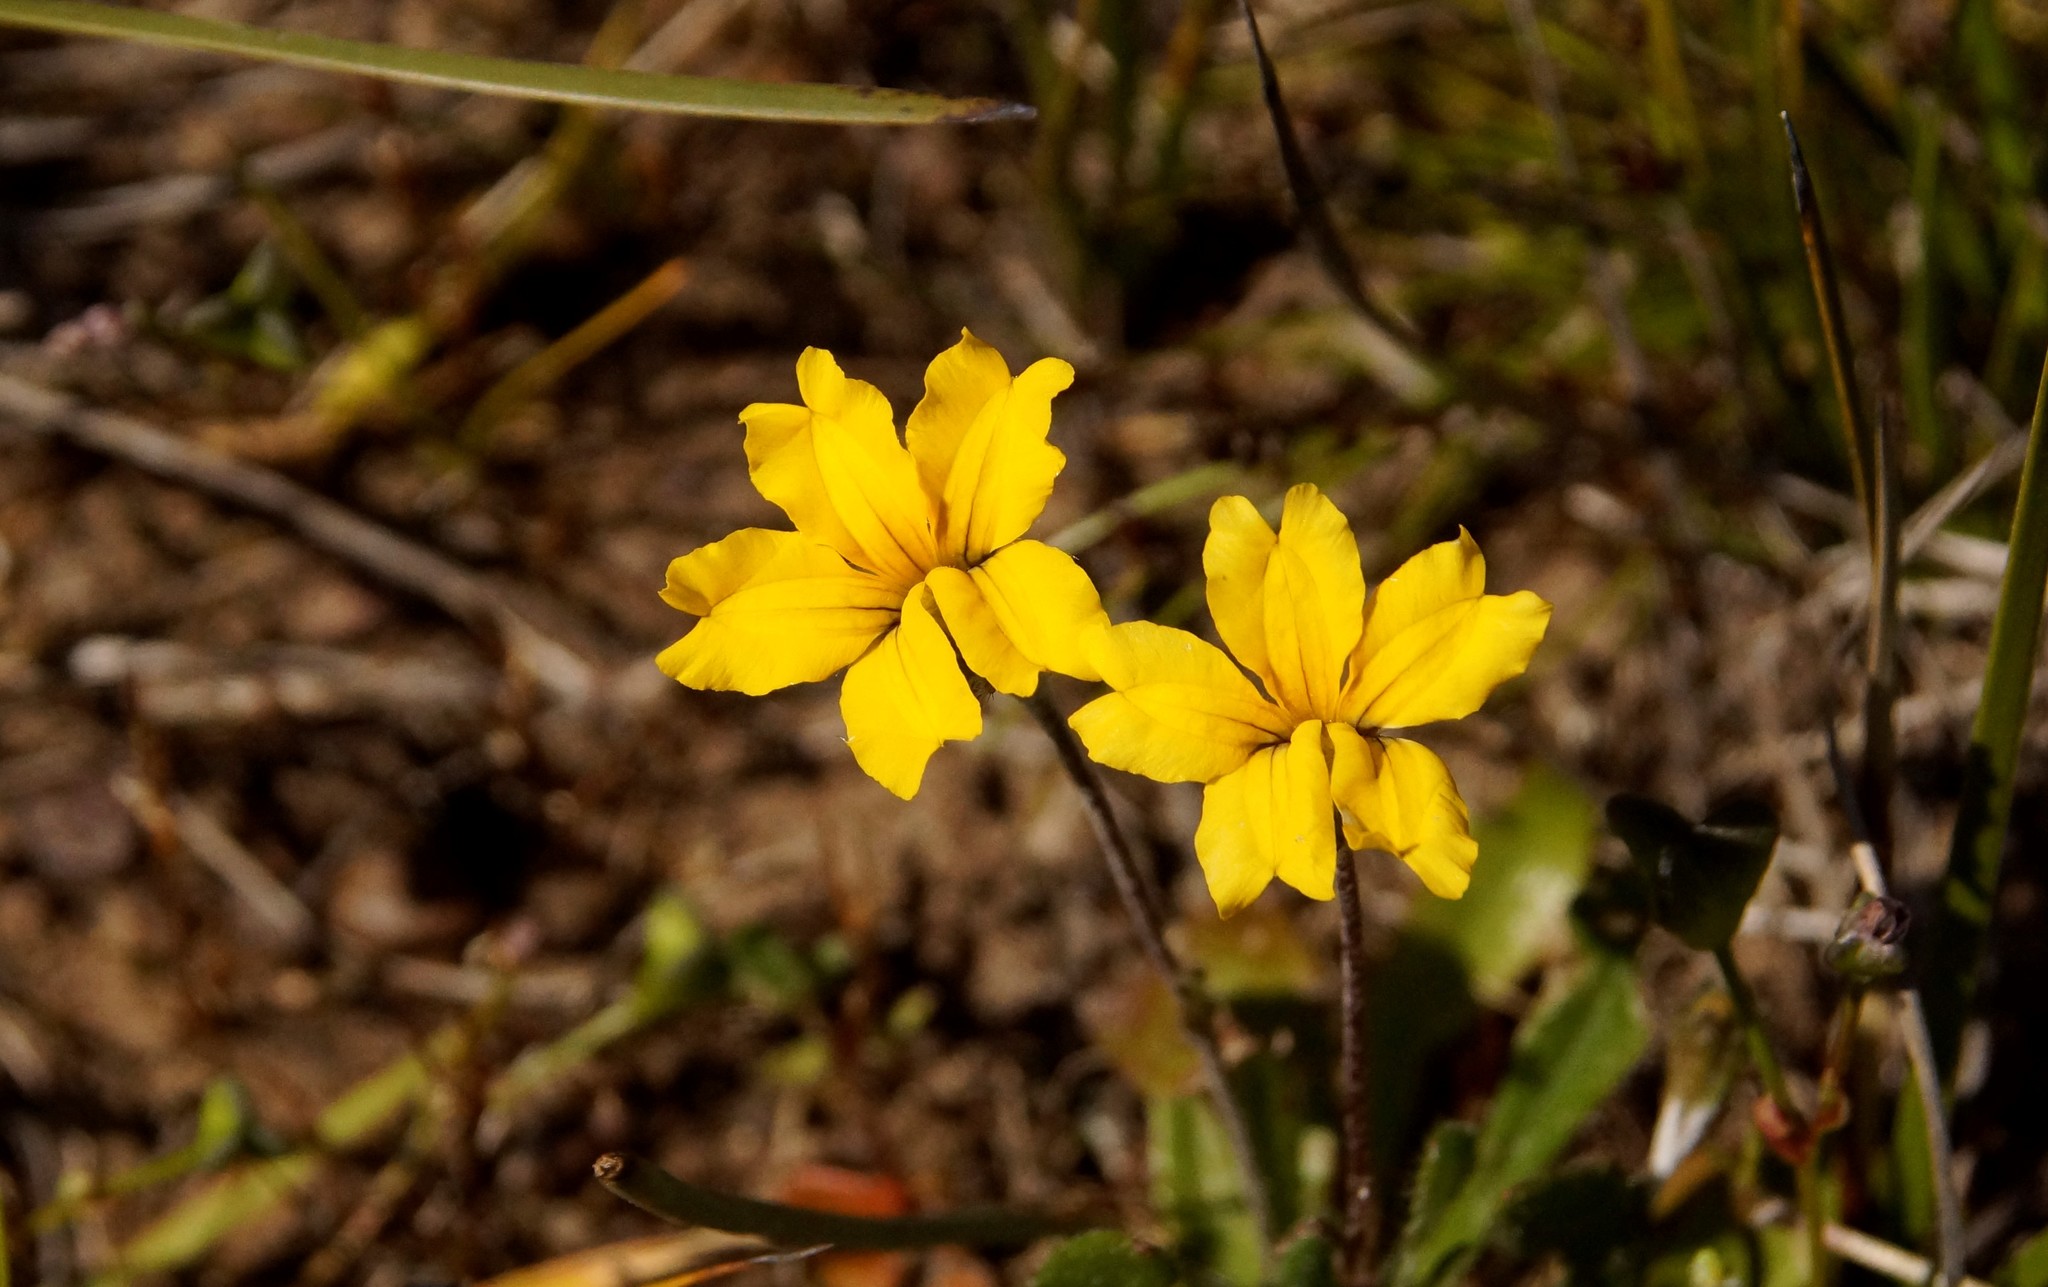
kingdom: Plantae
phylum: Tracheophyta
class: Magnoliopsida
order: Asterales
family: Goodeniaceae
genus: Goodenia
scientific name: Goodenia geniculata
